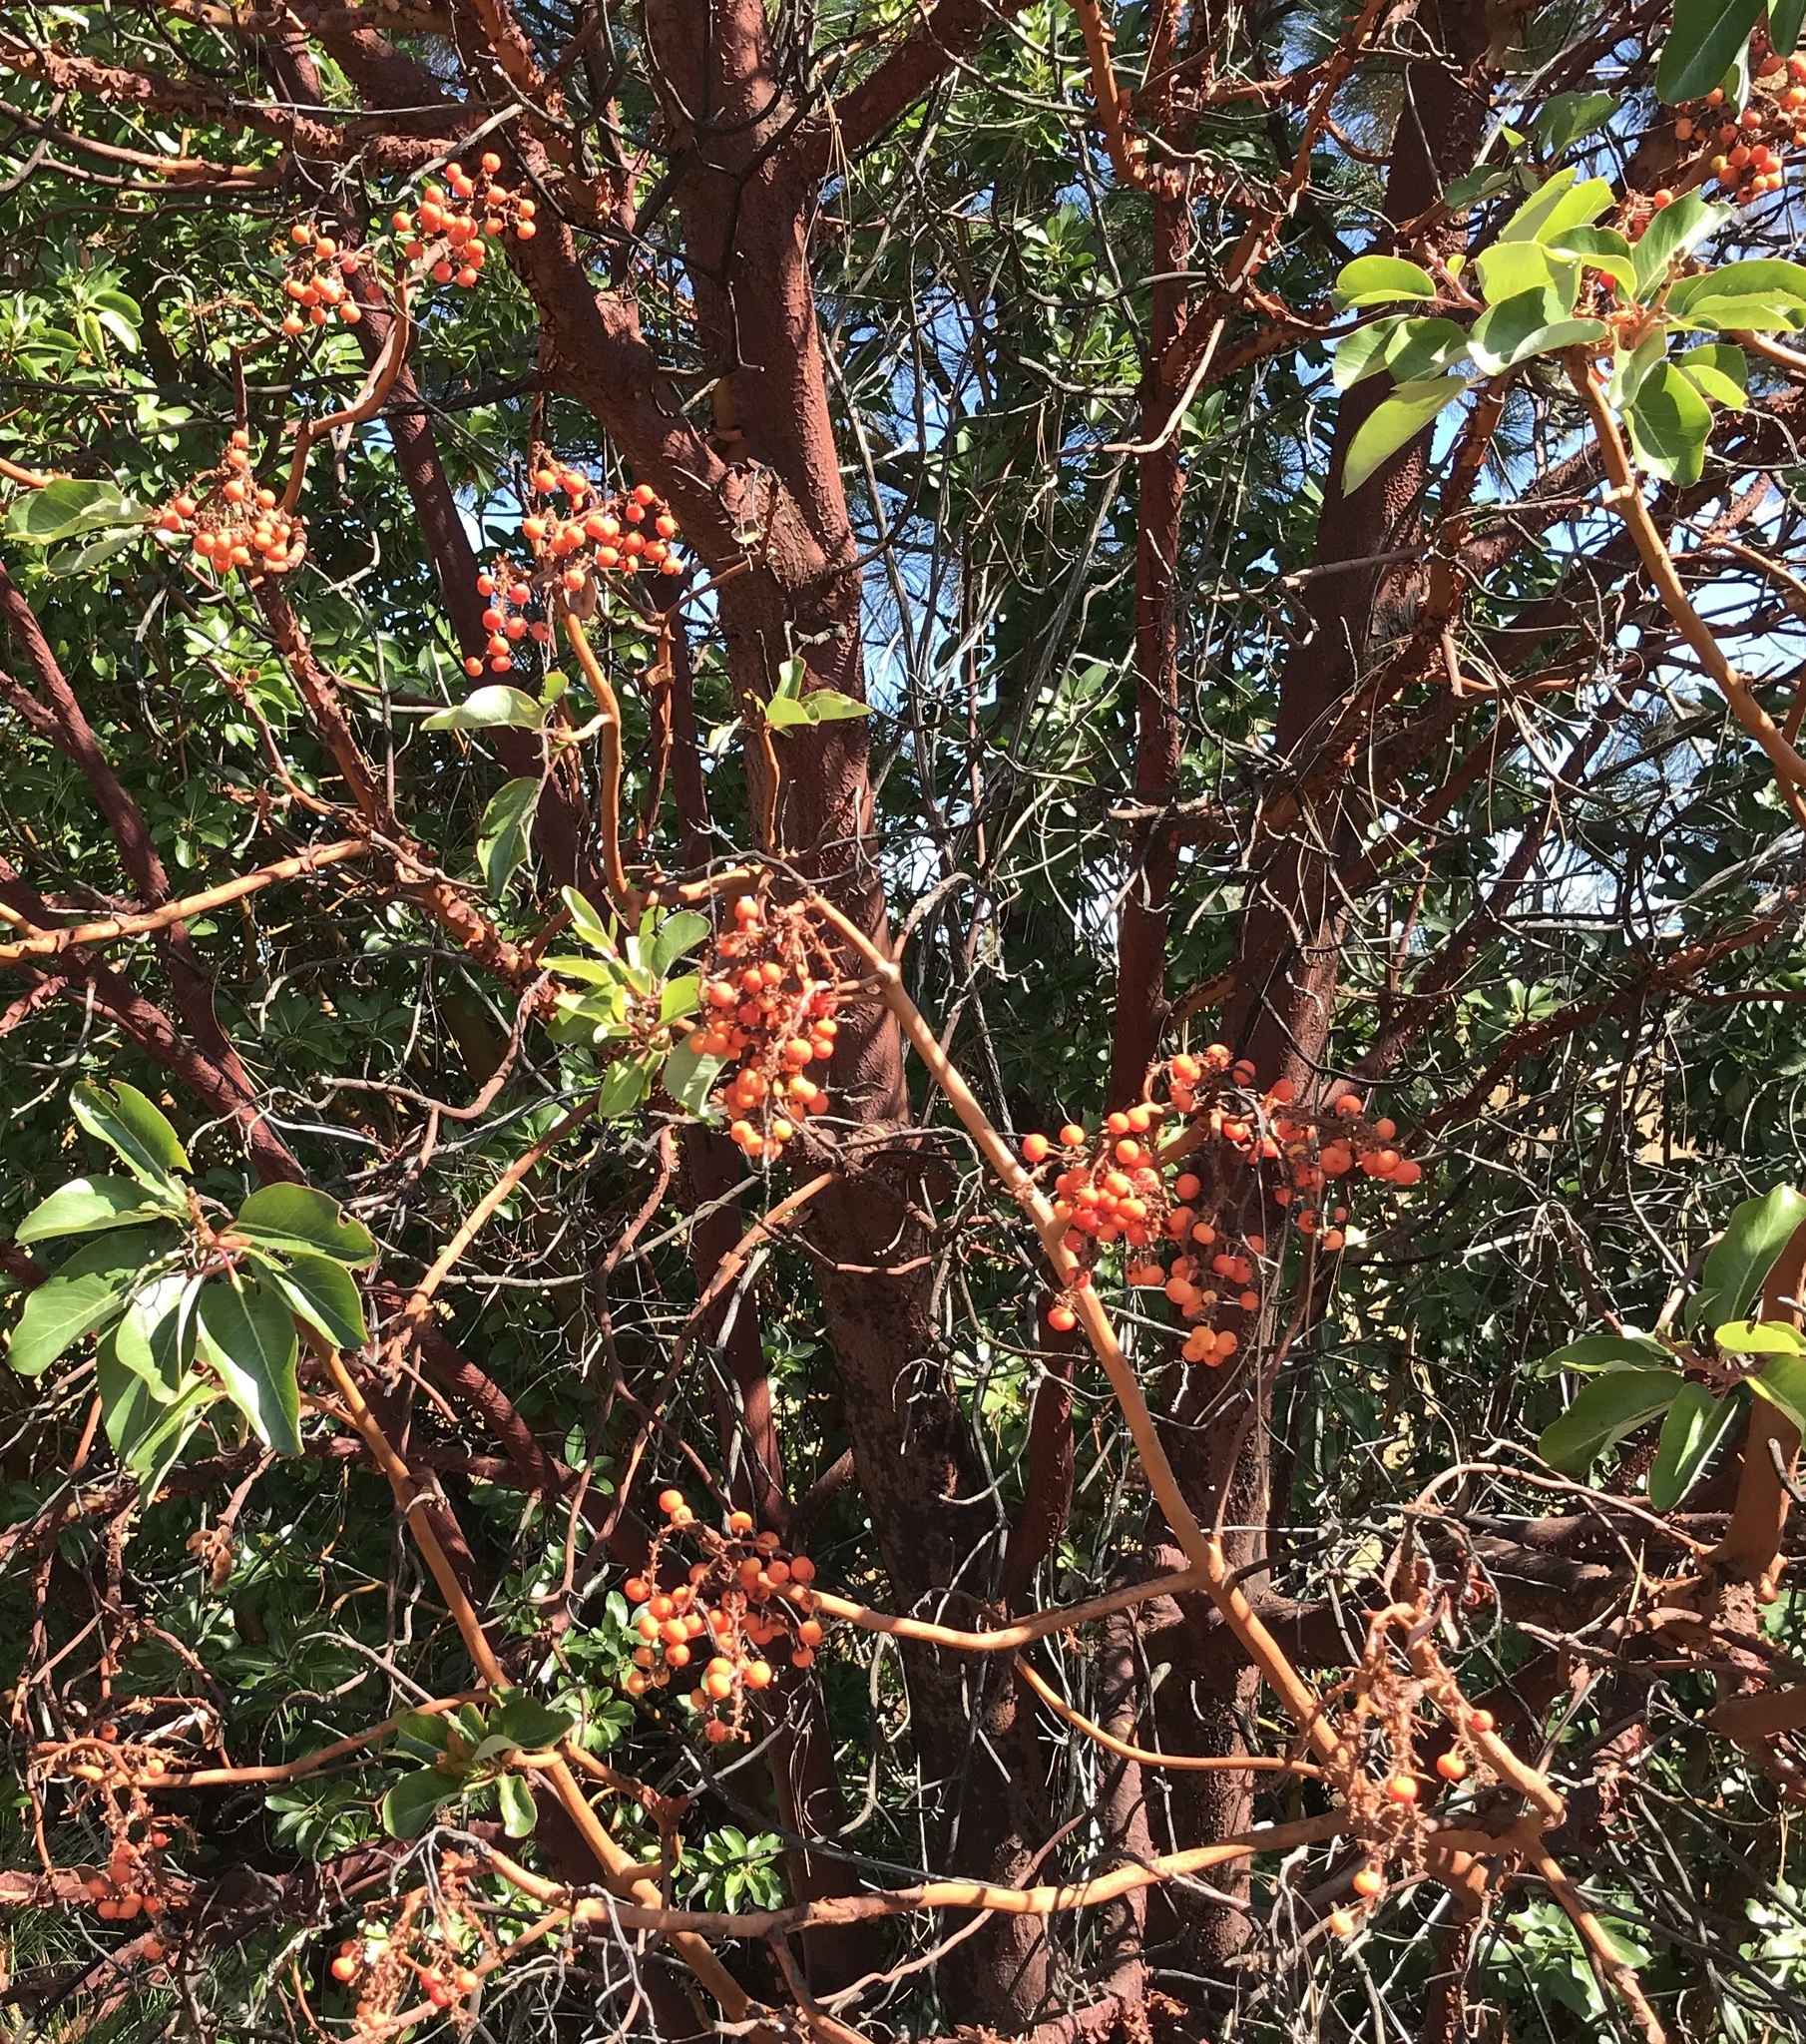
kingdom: Plantae
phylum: Tracheophyta
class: Magnoliopsida
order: Ericales
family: Ericaceae
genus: Arbutus
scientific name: Arbutus menziesii
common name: Pacific madrone
